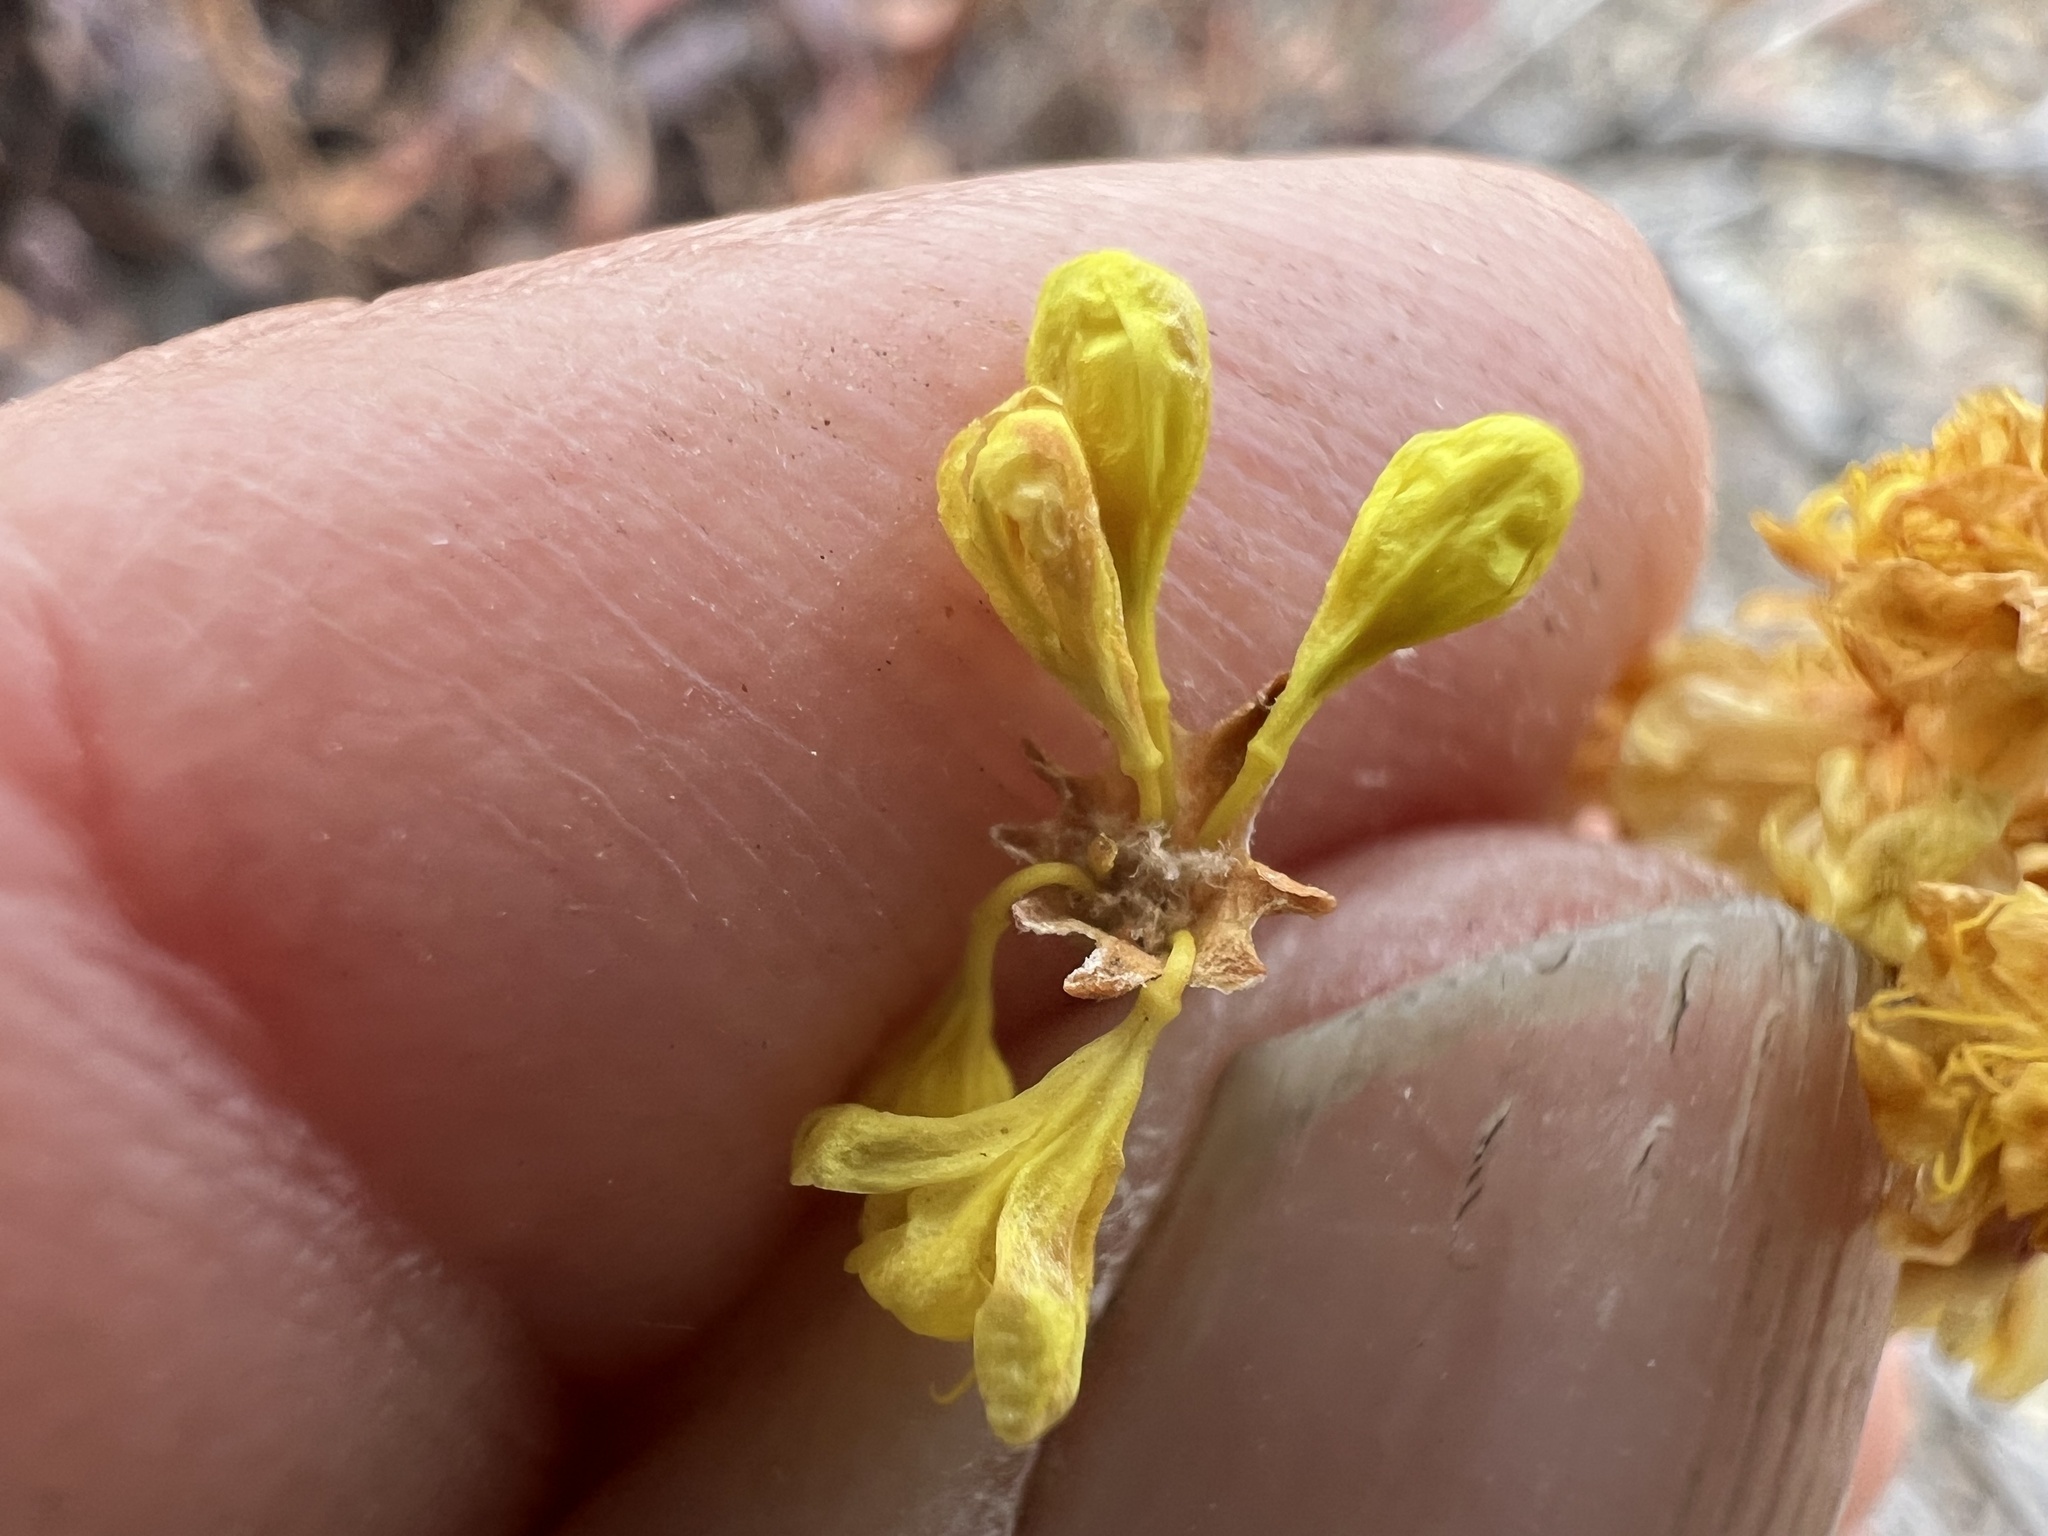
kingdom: Plantae
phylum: Tracheophyta
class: Magnoliopsida
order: Caryophyllales
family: Polygonaceae
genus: Eriogonum
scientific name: Eriogonum umbellatum
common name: Sulfur-buckwheat
